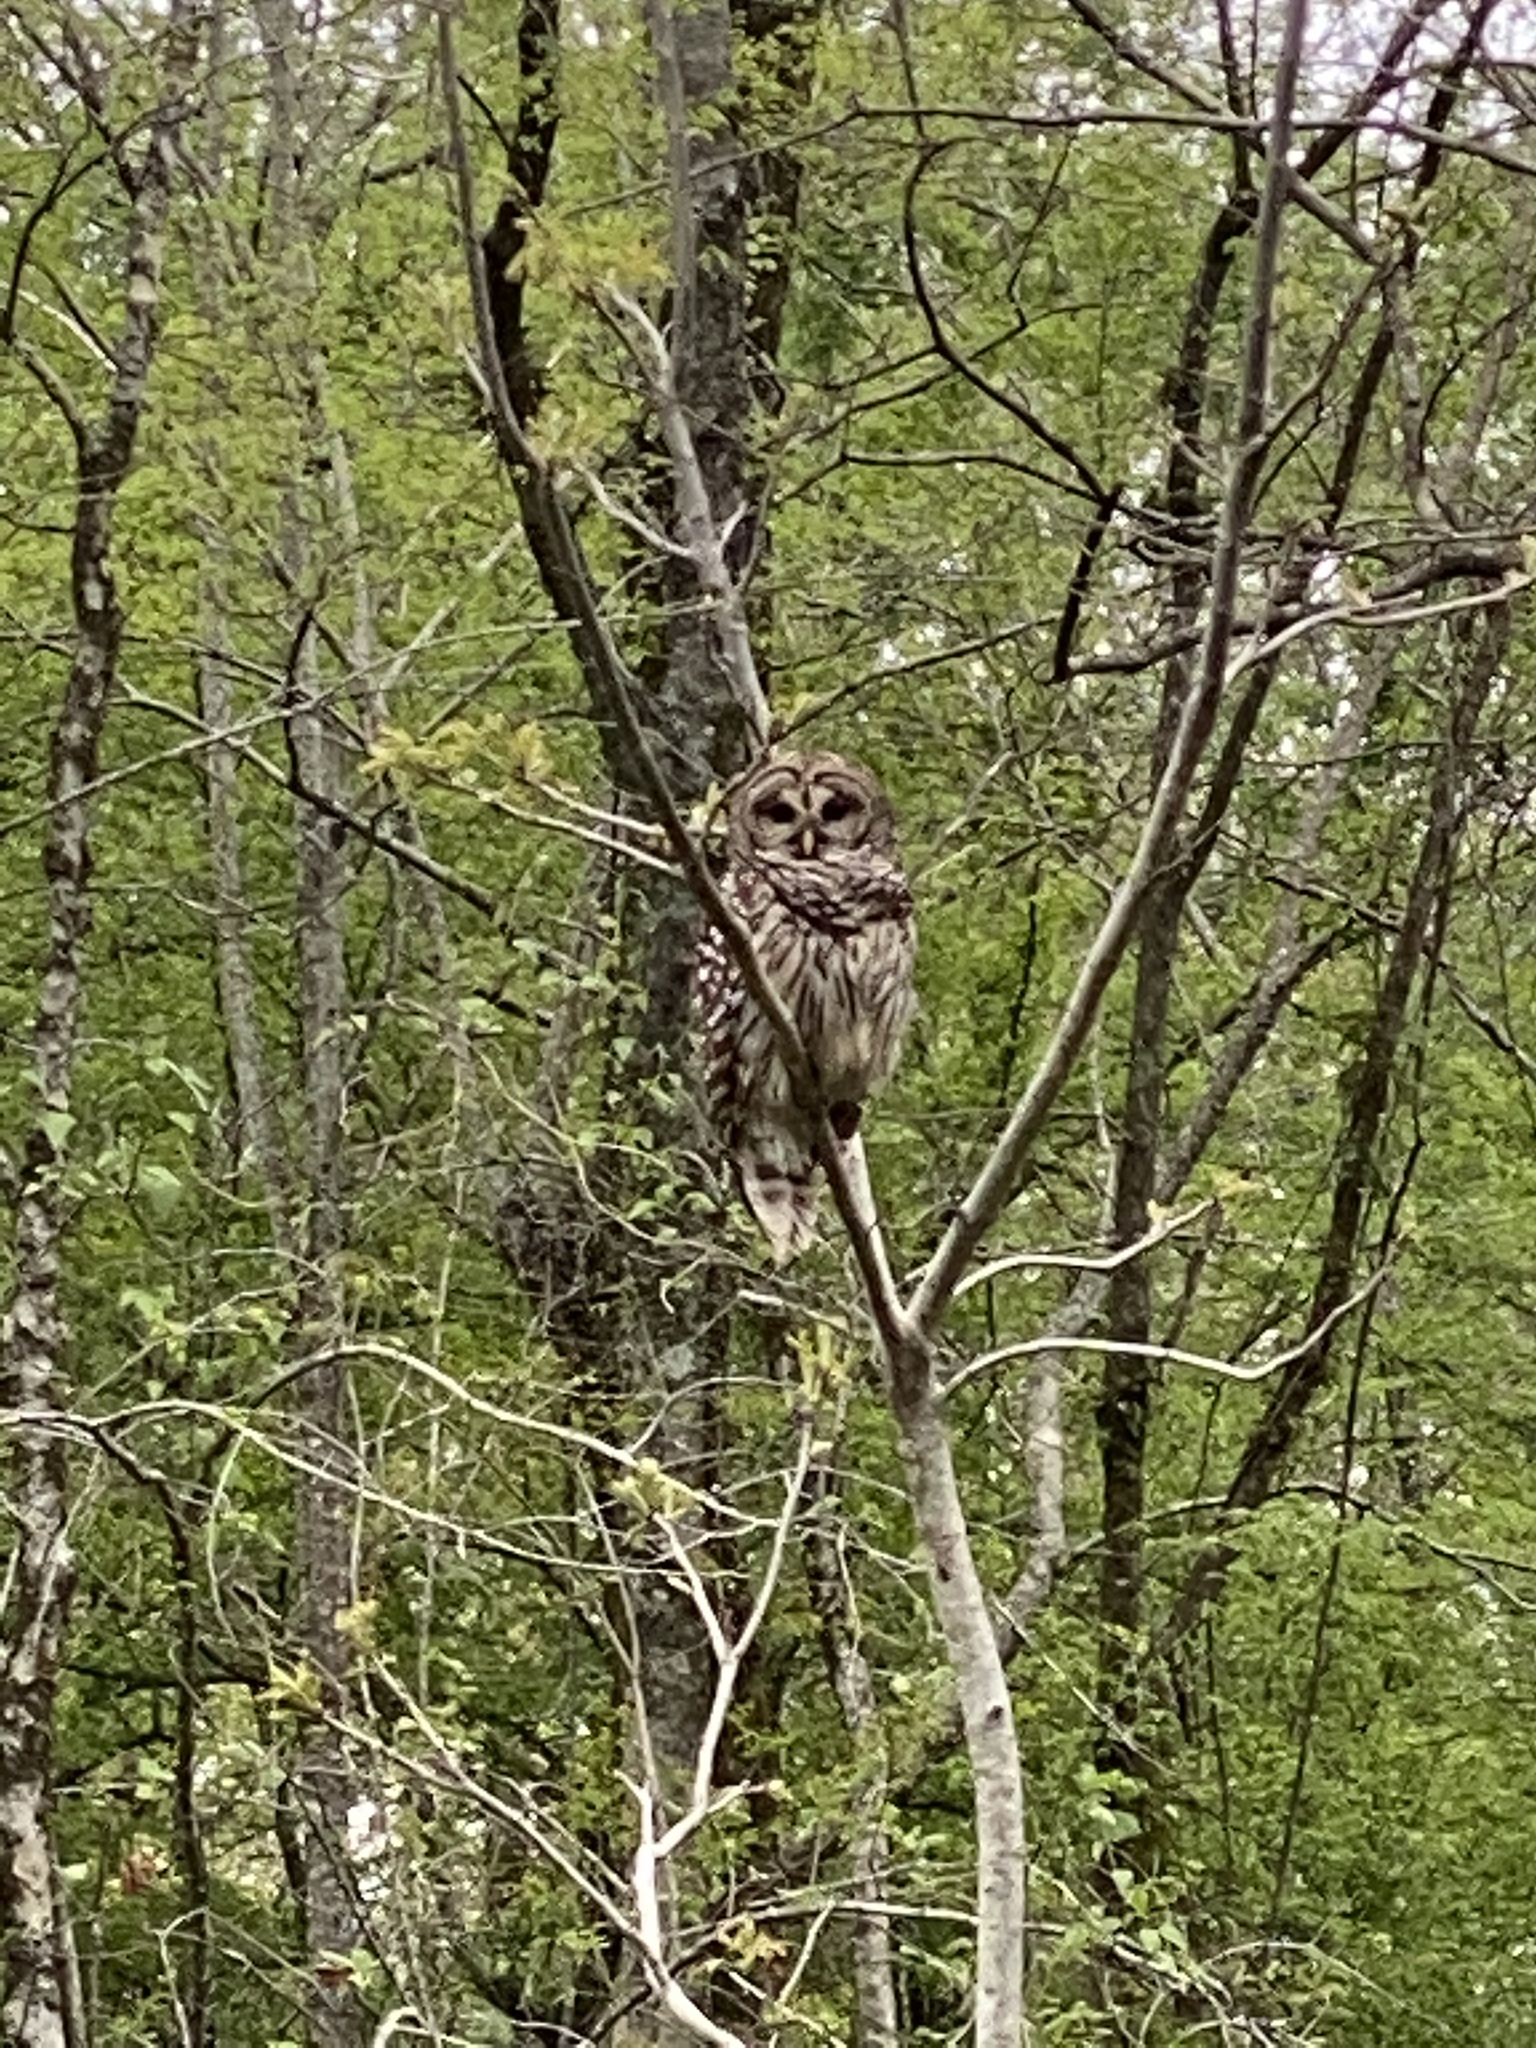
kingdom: Animalia
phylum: Chordata
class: Aves
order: Strigiformes
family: Strigidae
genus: Strix
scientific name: Strix varia
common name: Barred owl
